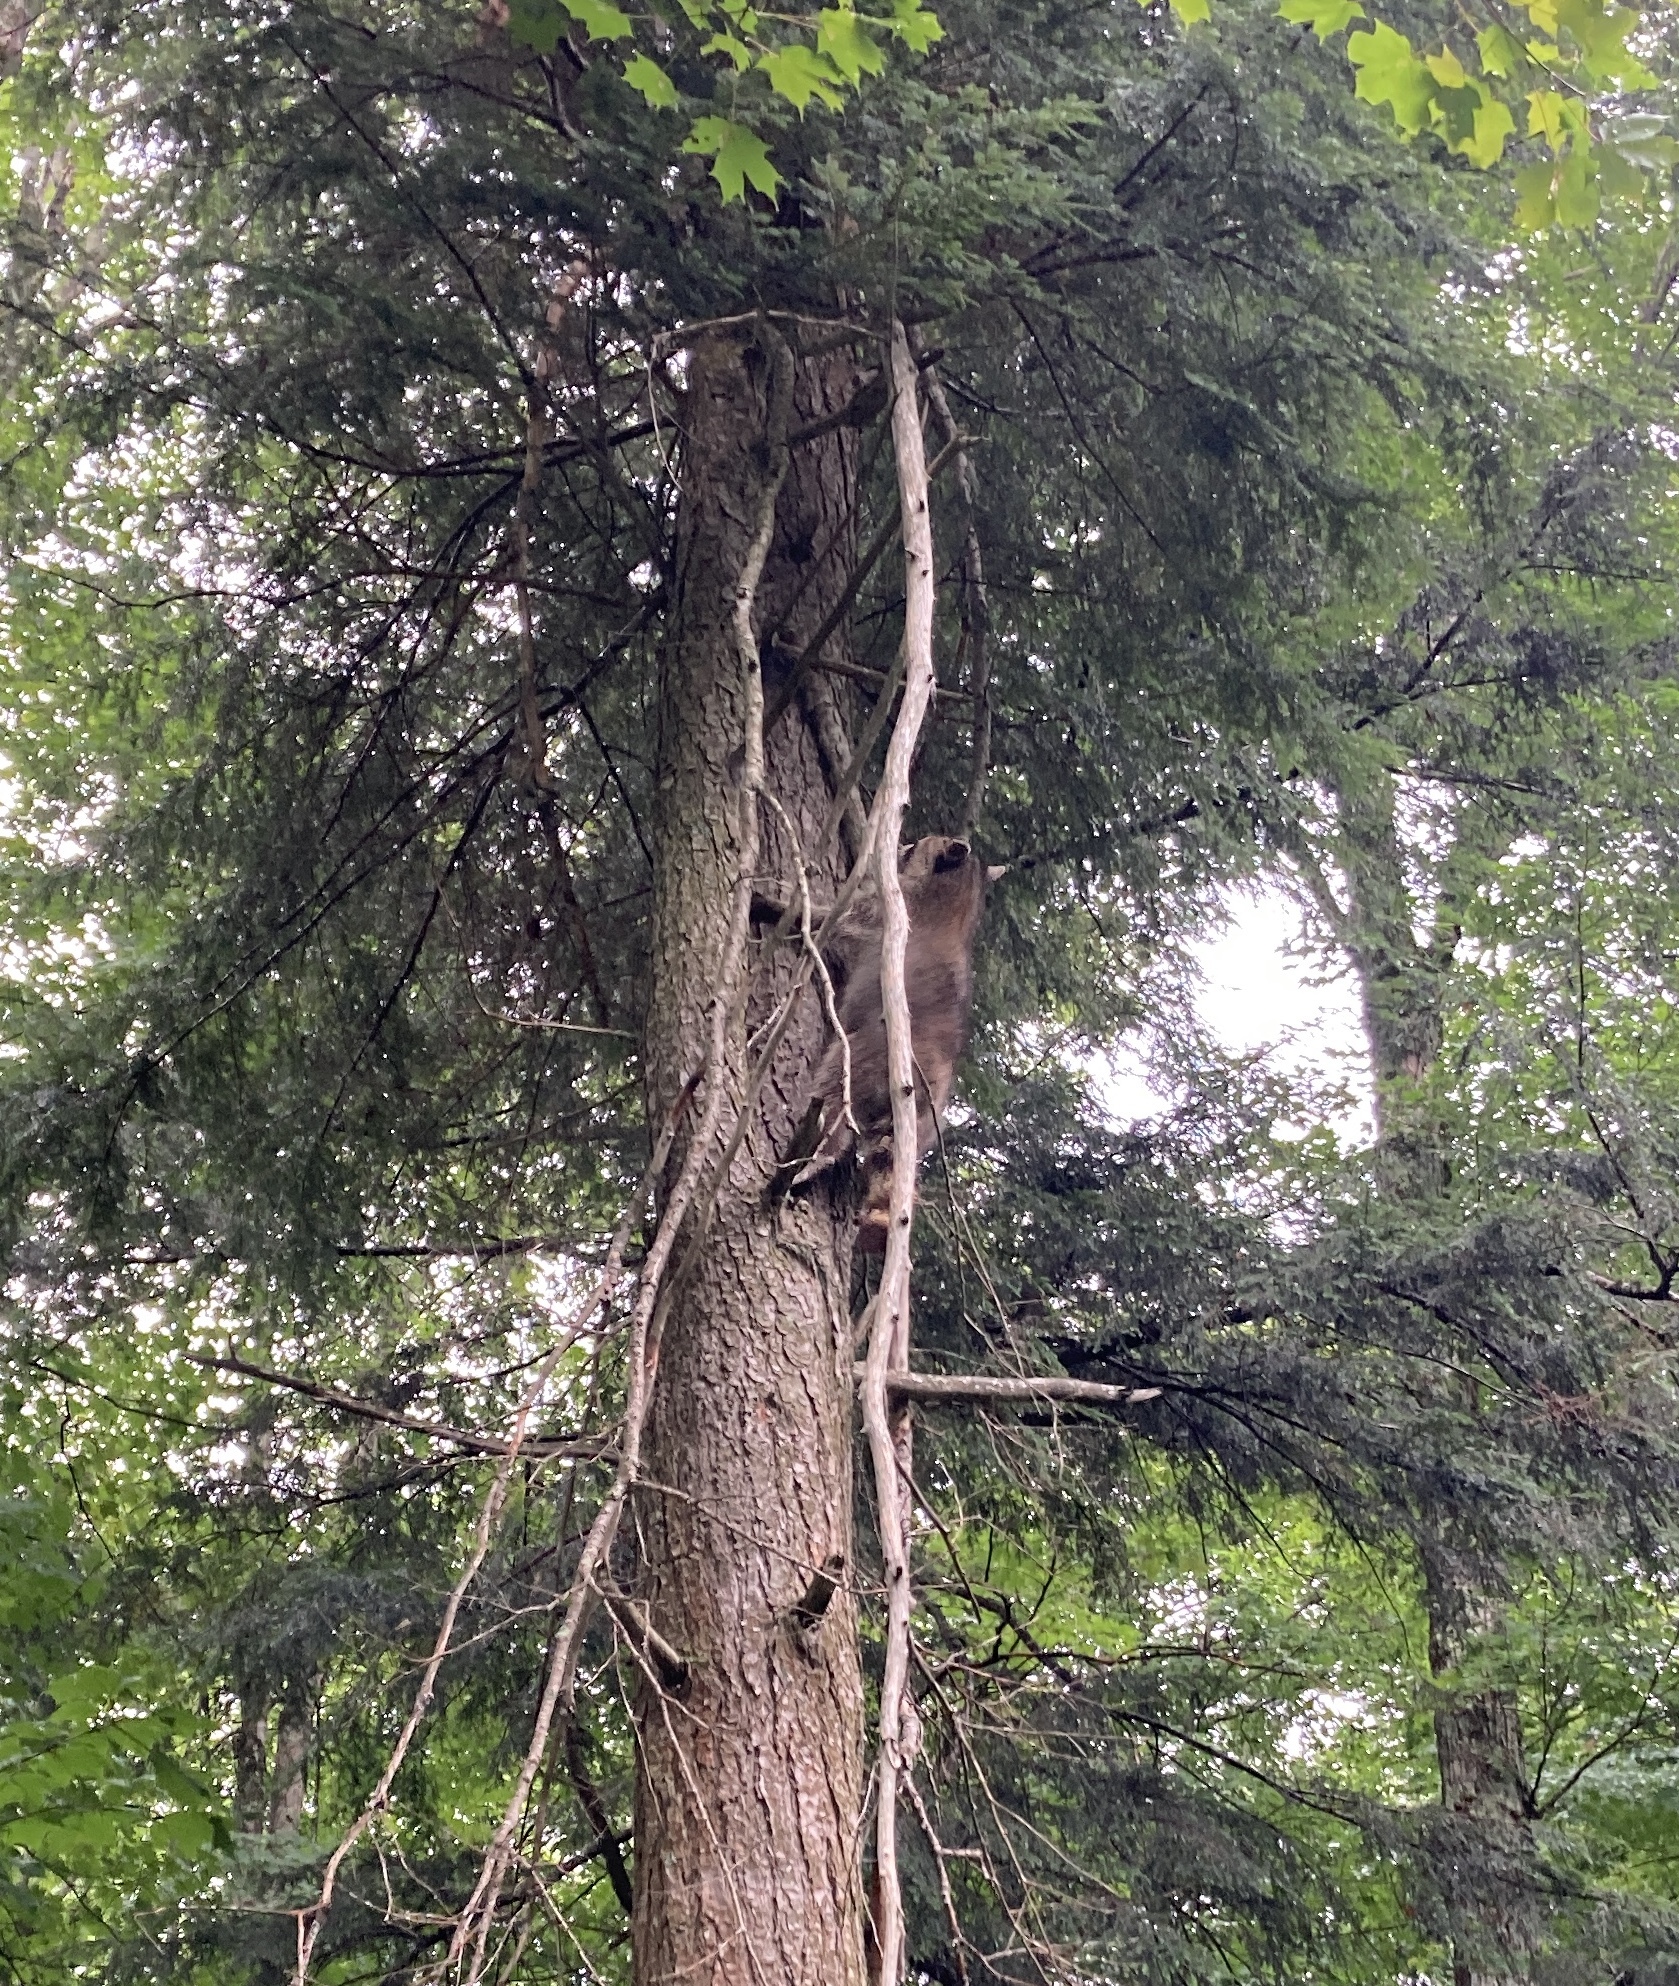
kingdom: Animalia
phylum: Chordata
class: Mammalia
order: Carnivora
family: Procyonidae
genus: Procyon
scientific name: Procyon lotor
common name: Raccoon
